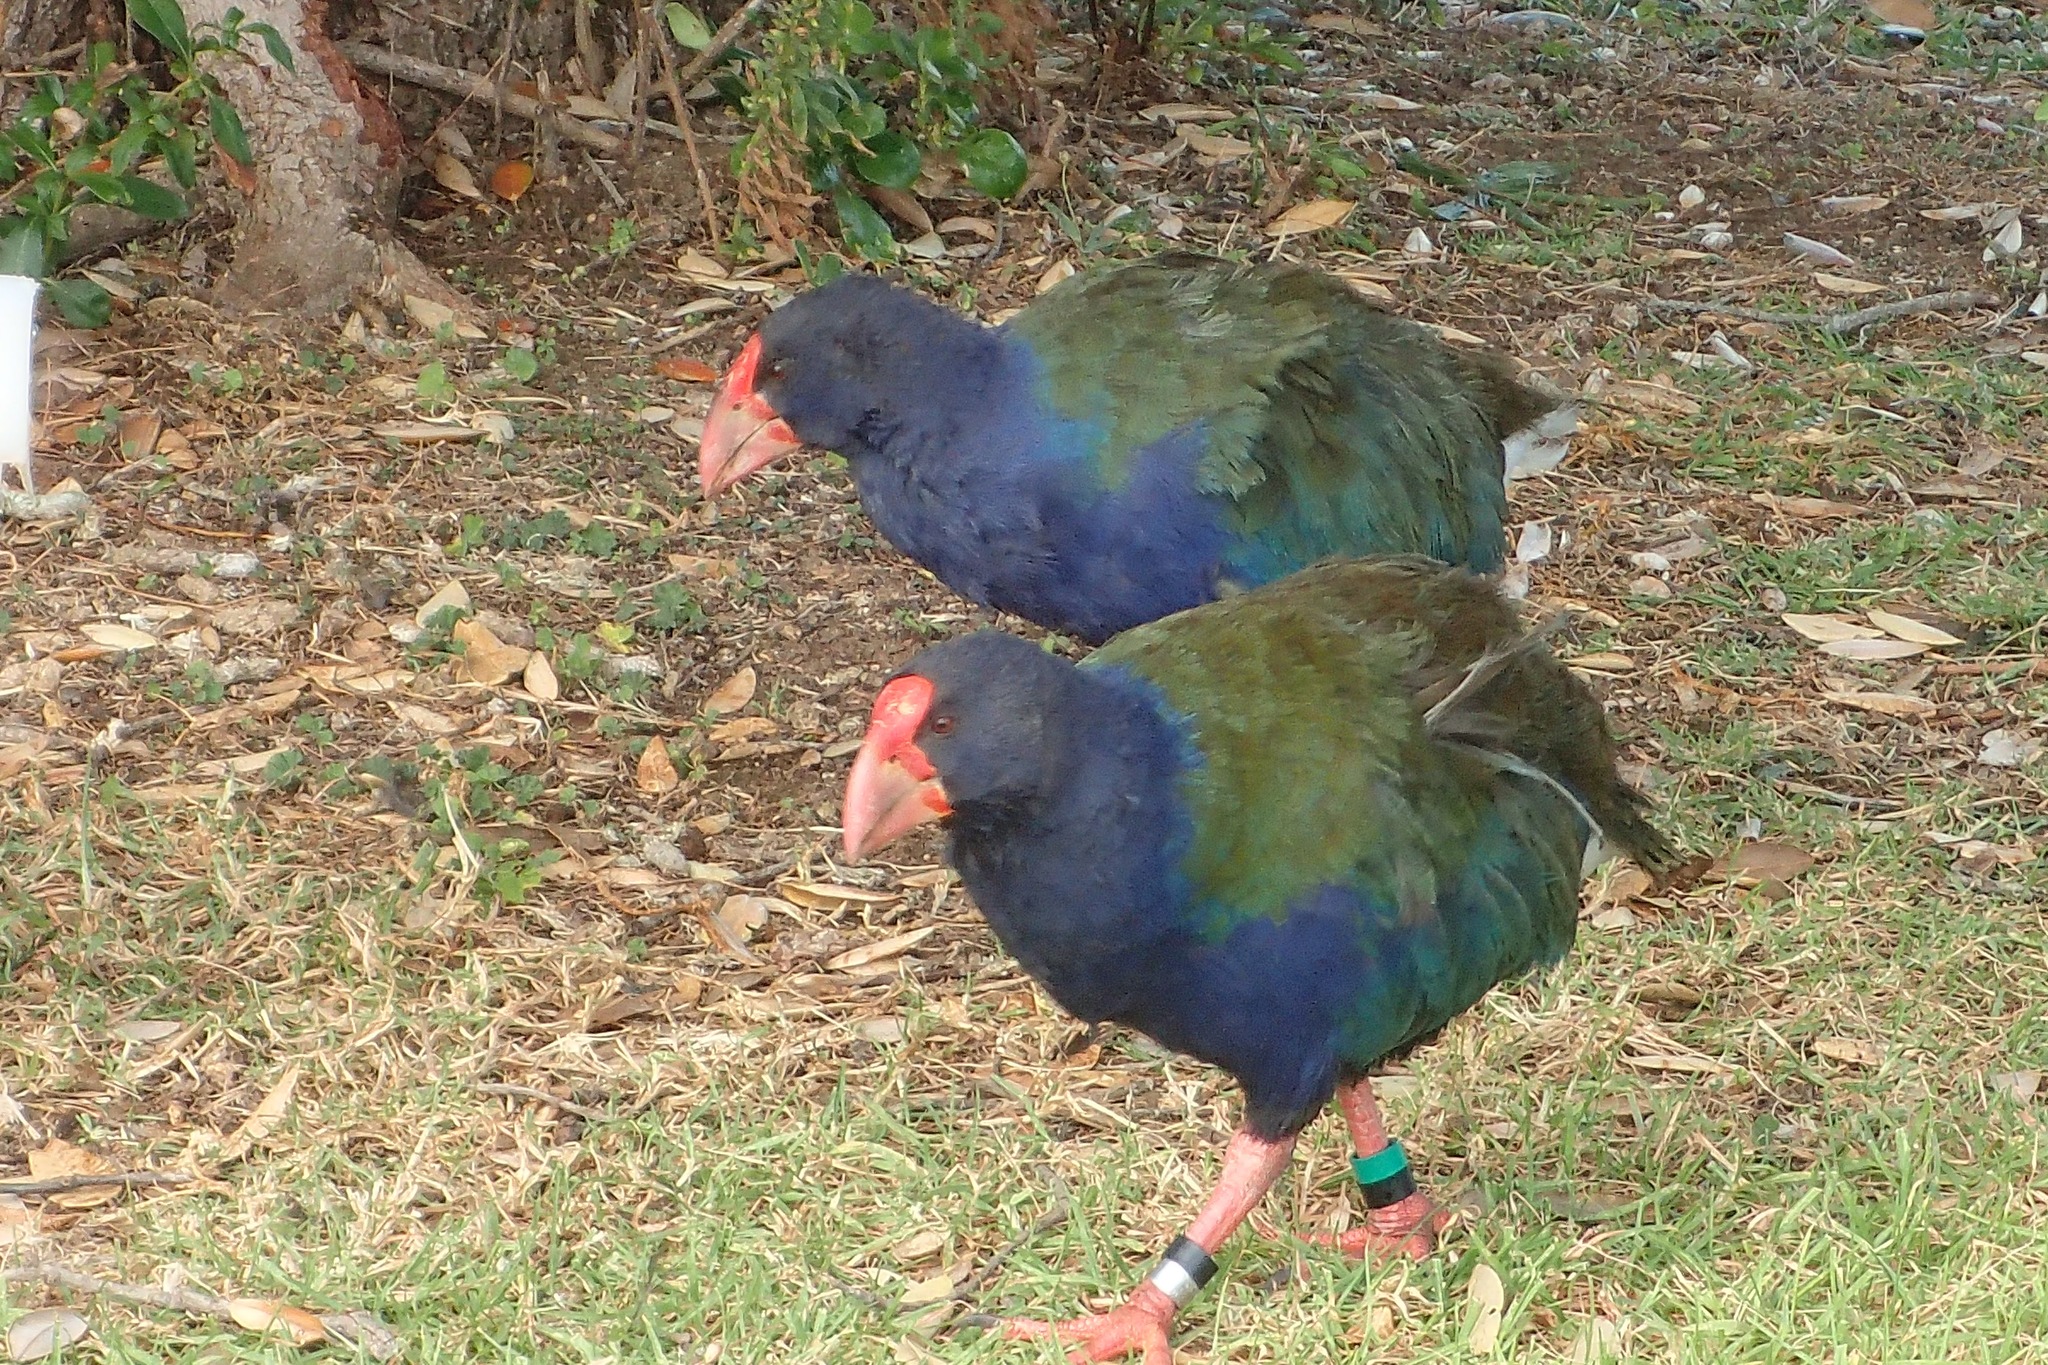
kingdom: Animalia
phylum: Chordata
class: Aves
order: Gruiformes
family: Rallidae
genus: Porphyrio
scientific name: Porphyrio hochstetteri
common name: South island takahe
